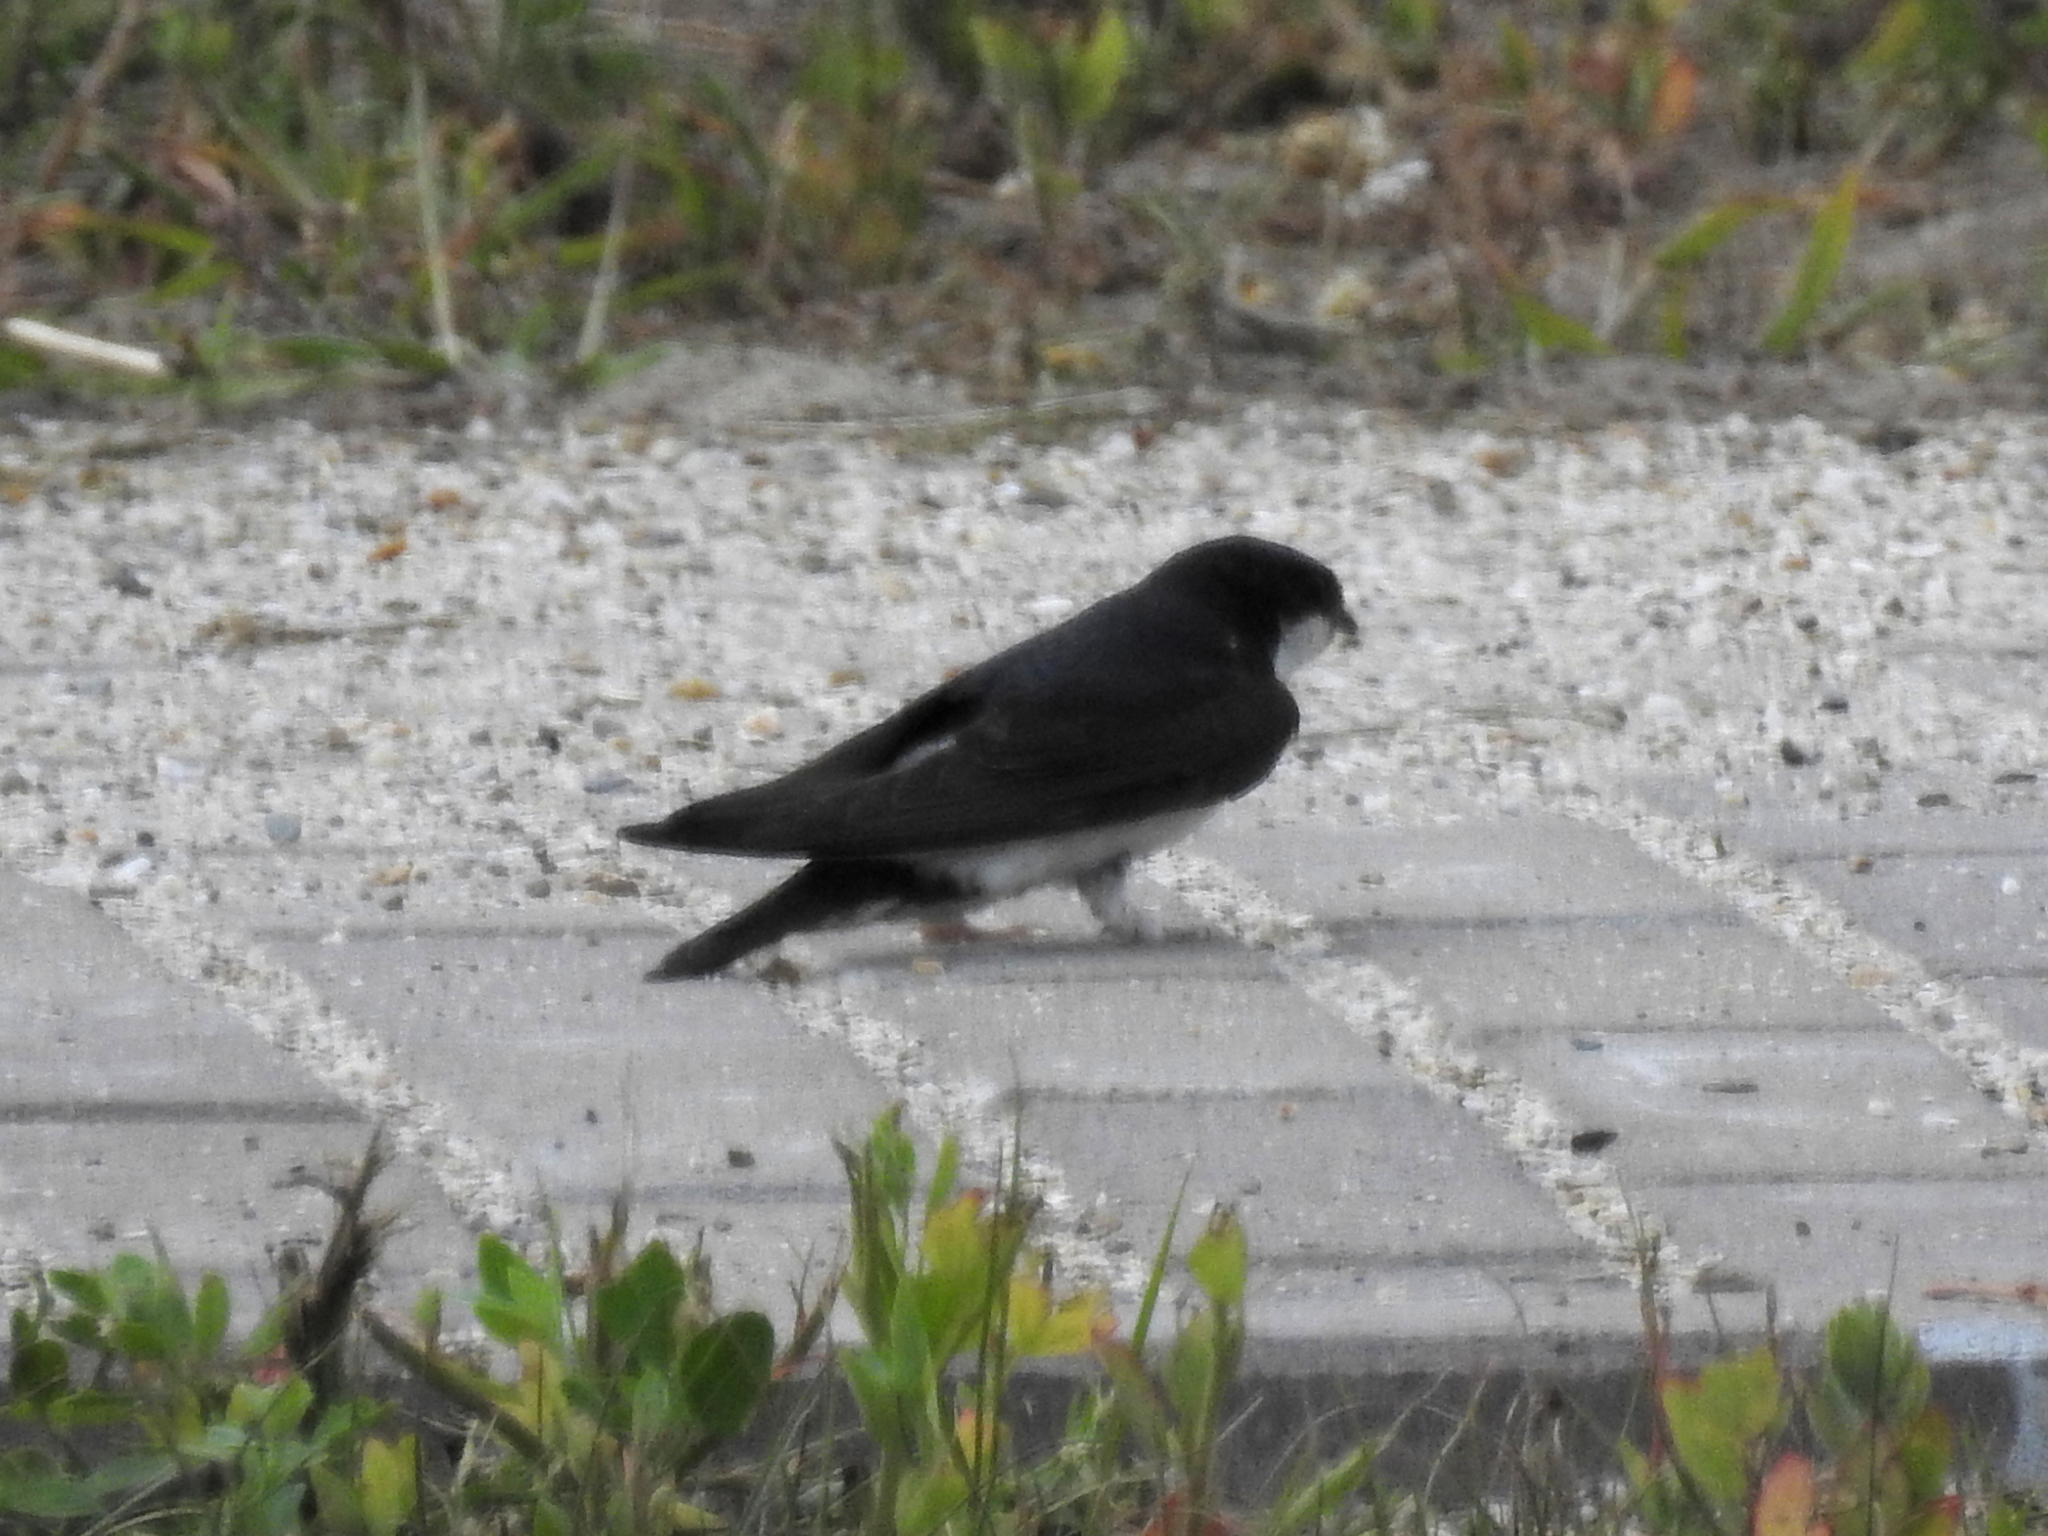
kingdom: Animalia
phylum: Chordata
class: Aves
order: Passeriformes
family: Hirundinidae
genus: Delichon
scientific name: Delichon urbicum
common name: Common house martin
